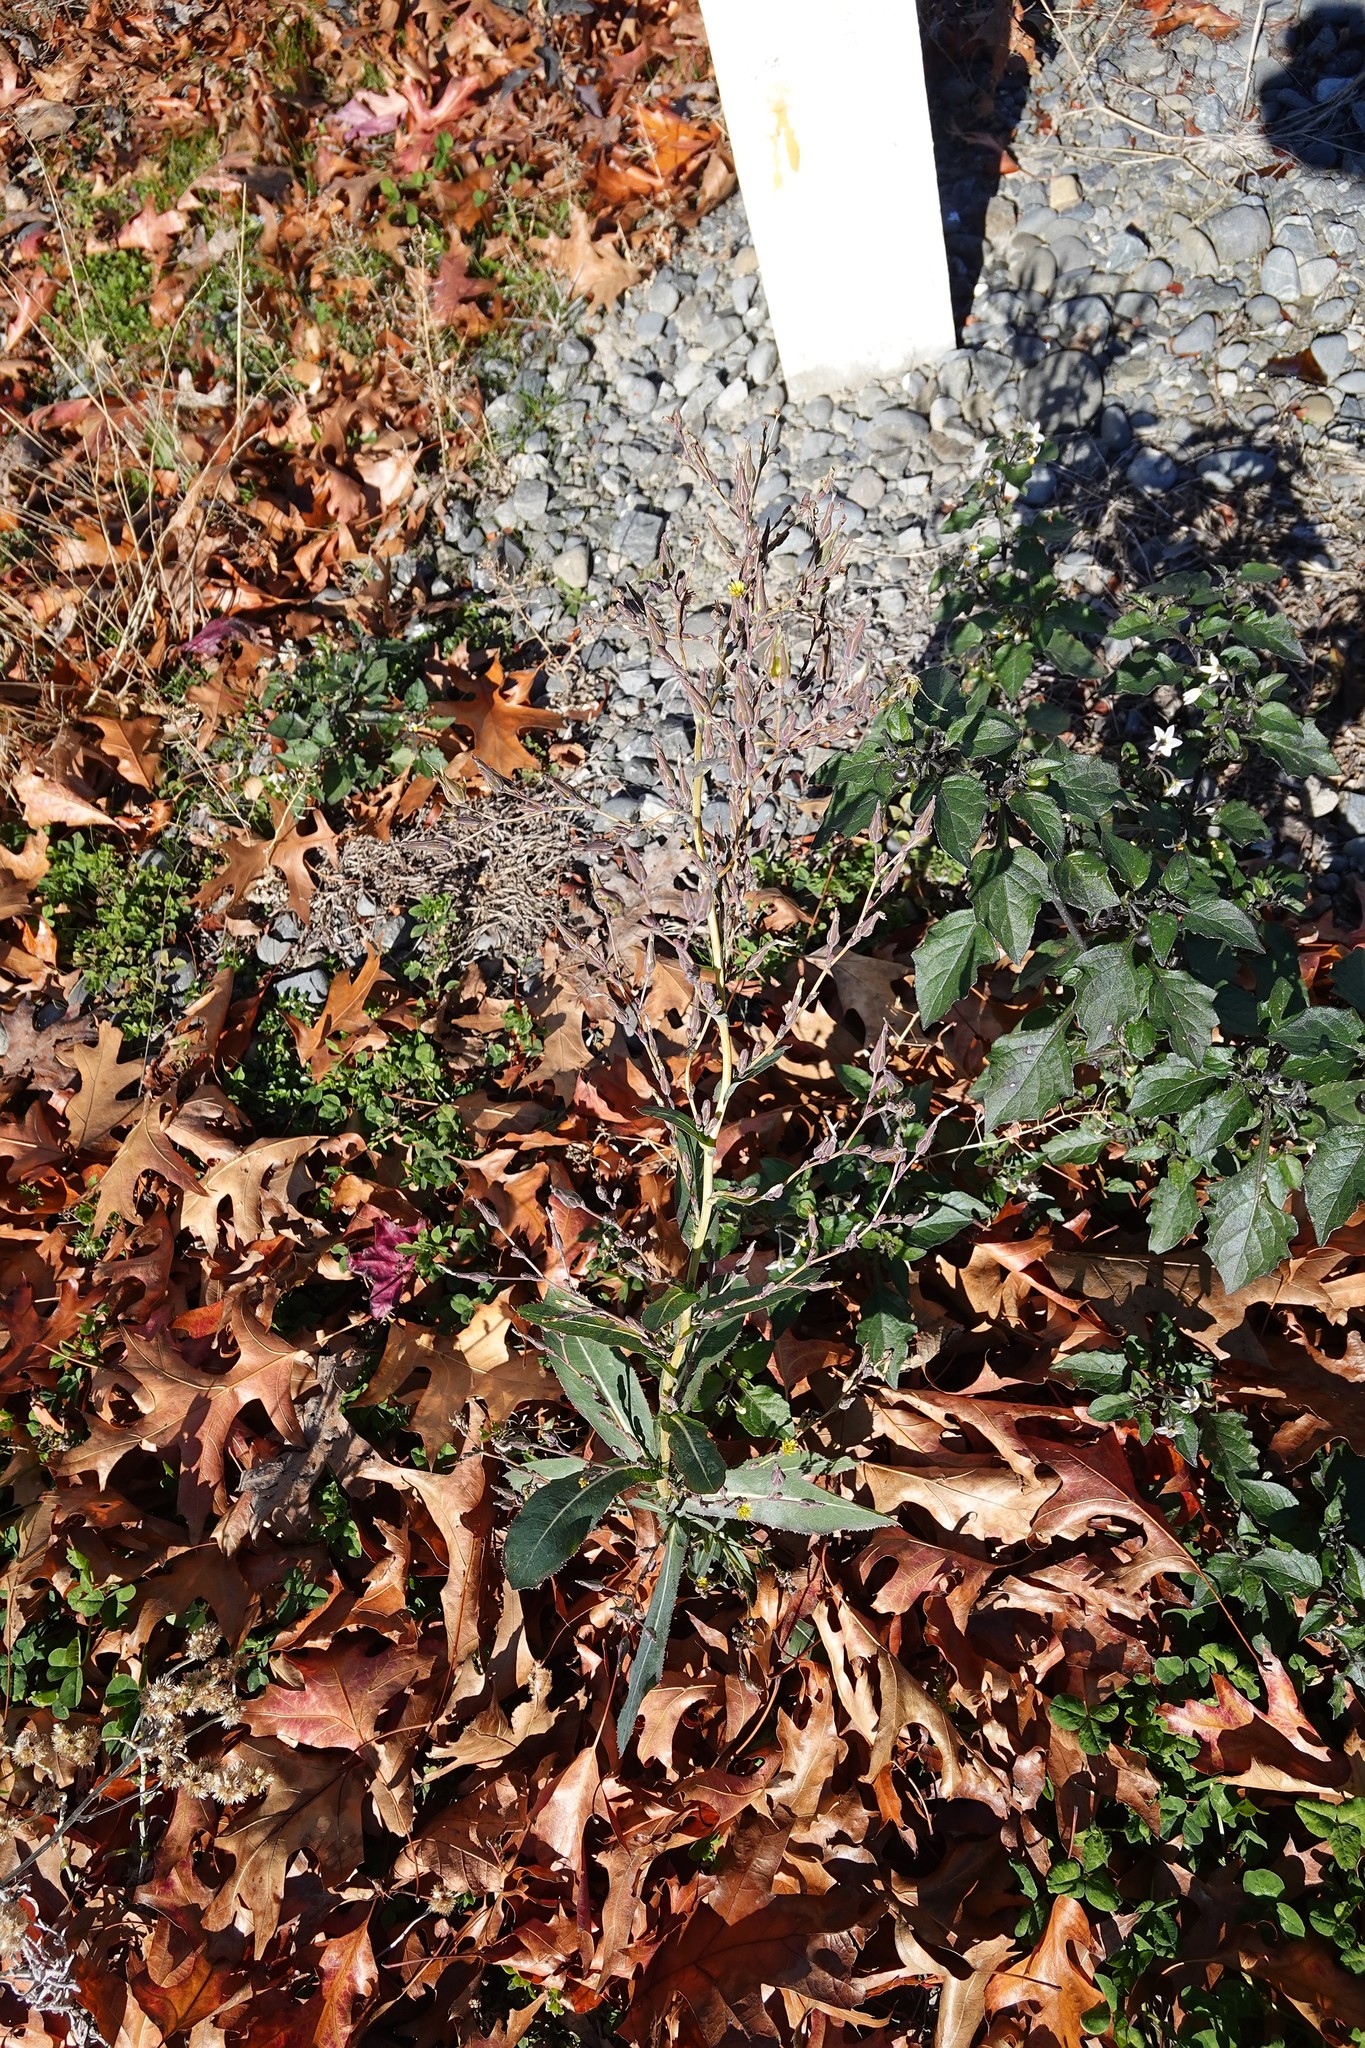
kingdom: Plantae
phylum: Tracheophyta
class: Magnoliopsida
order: Asterales
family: Asteraceae
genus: Symphyotrichum
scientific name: Symphyotrichum subulatum
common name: Annual saltmarsh aster
